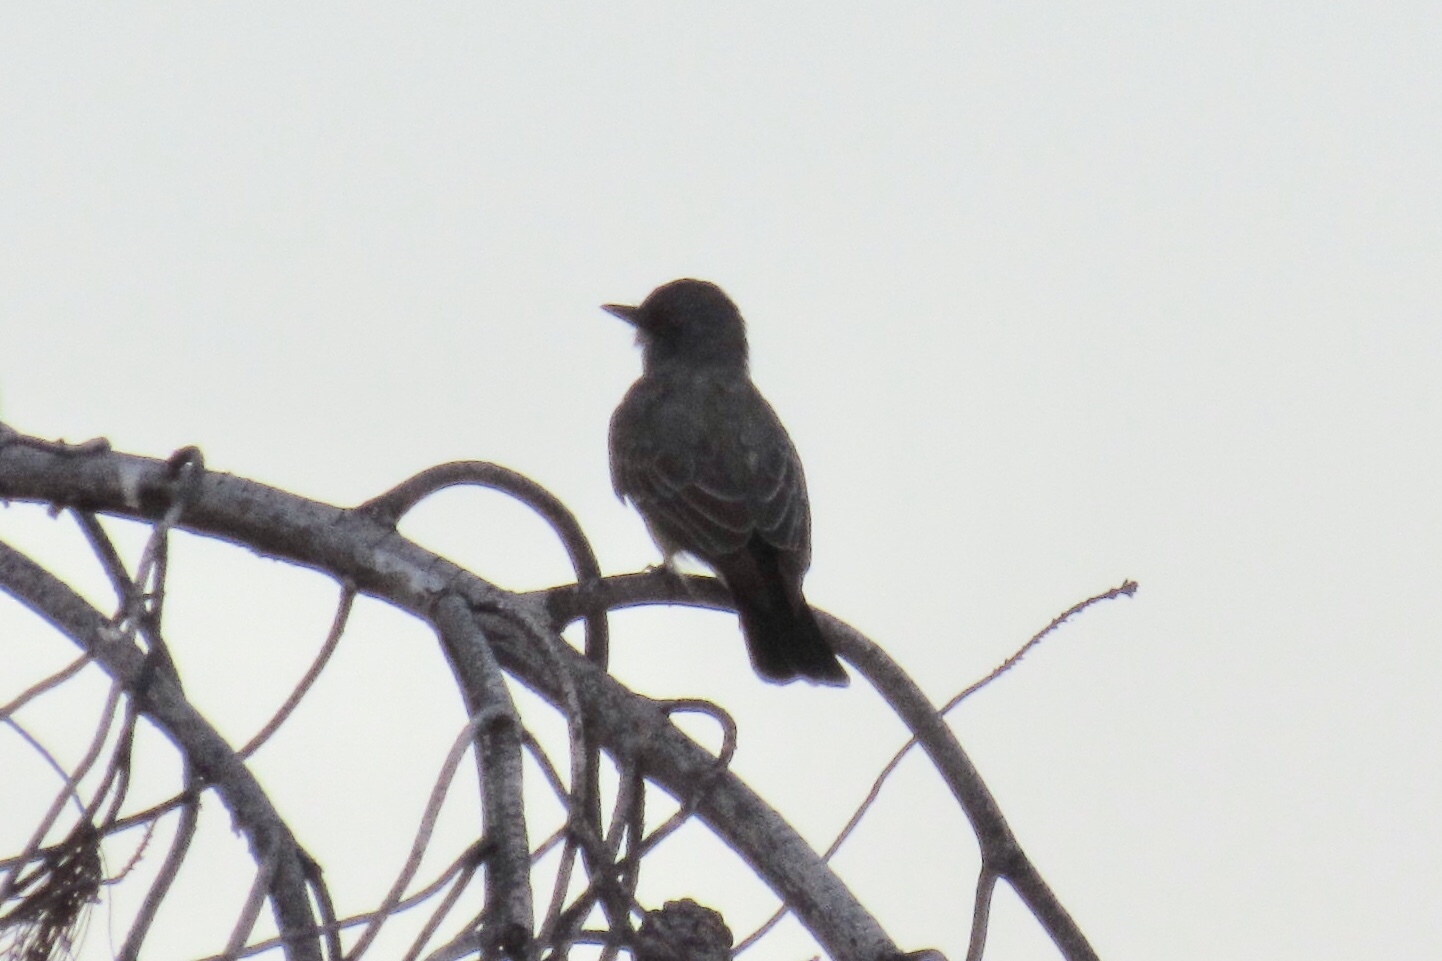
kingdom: Animalia
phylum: Chordata
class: Aves
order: Passeriformes
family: Tyrannidae
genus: Tyrannus
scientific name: Tyrannus vociferans
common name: Cassin's kingbird
